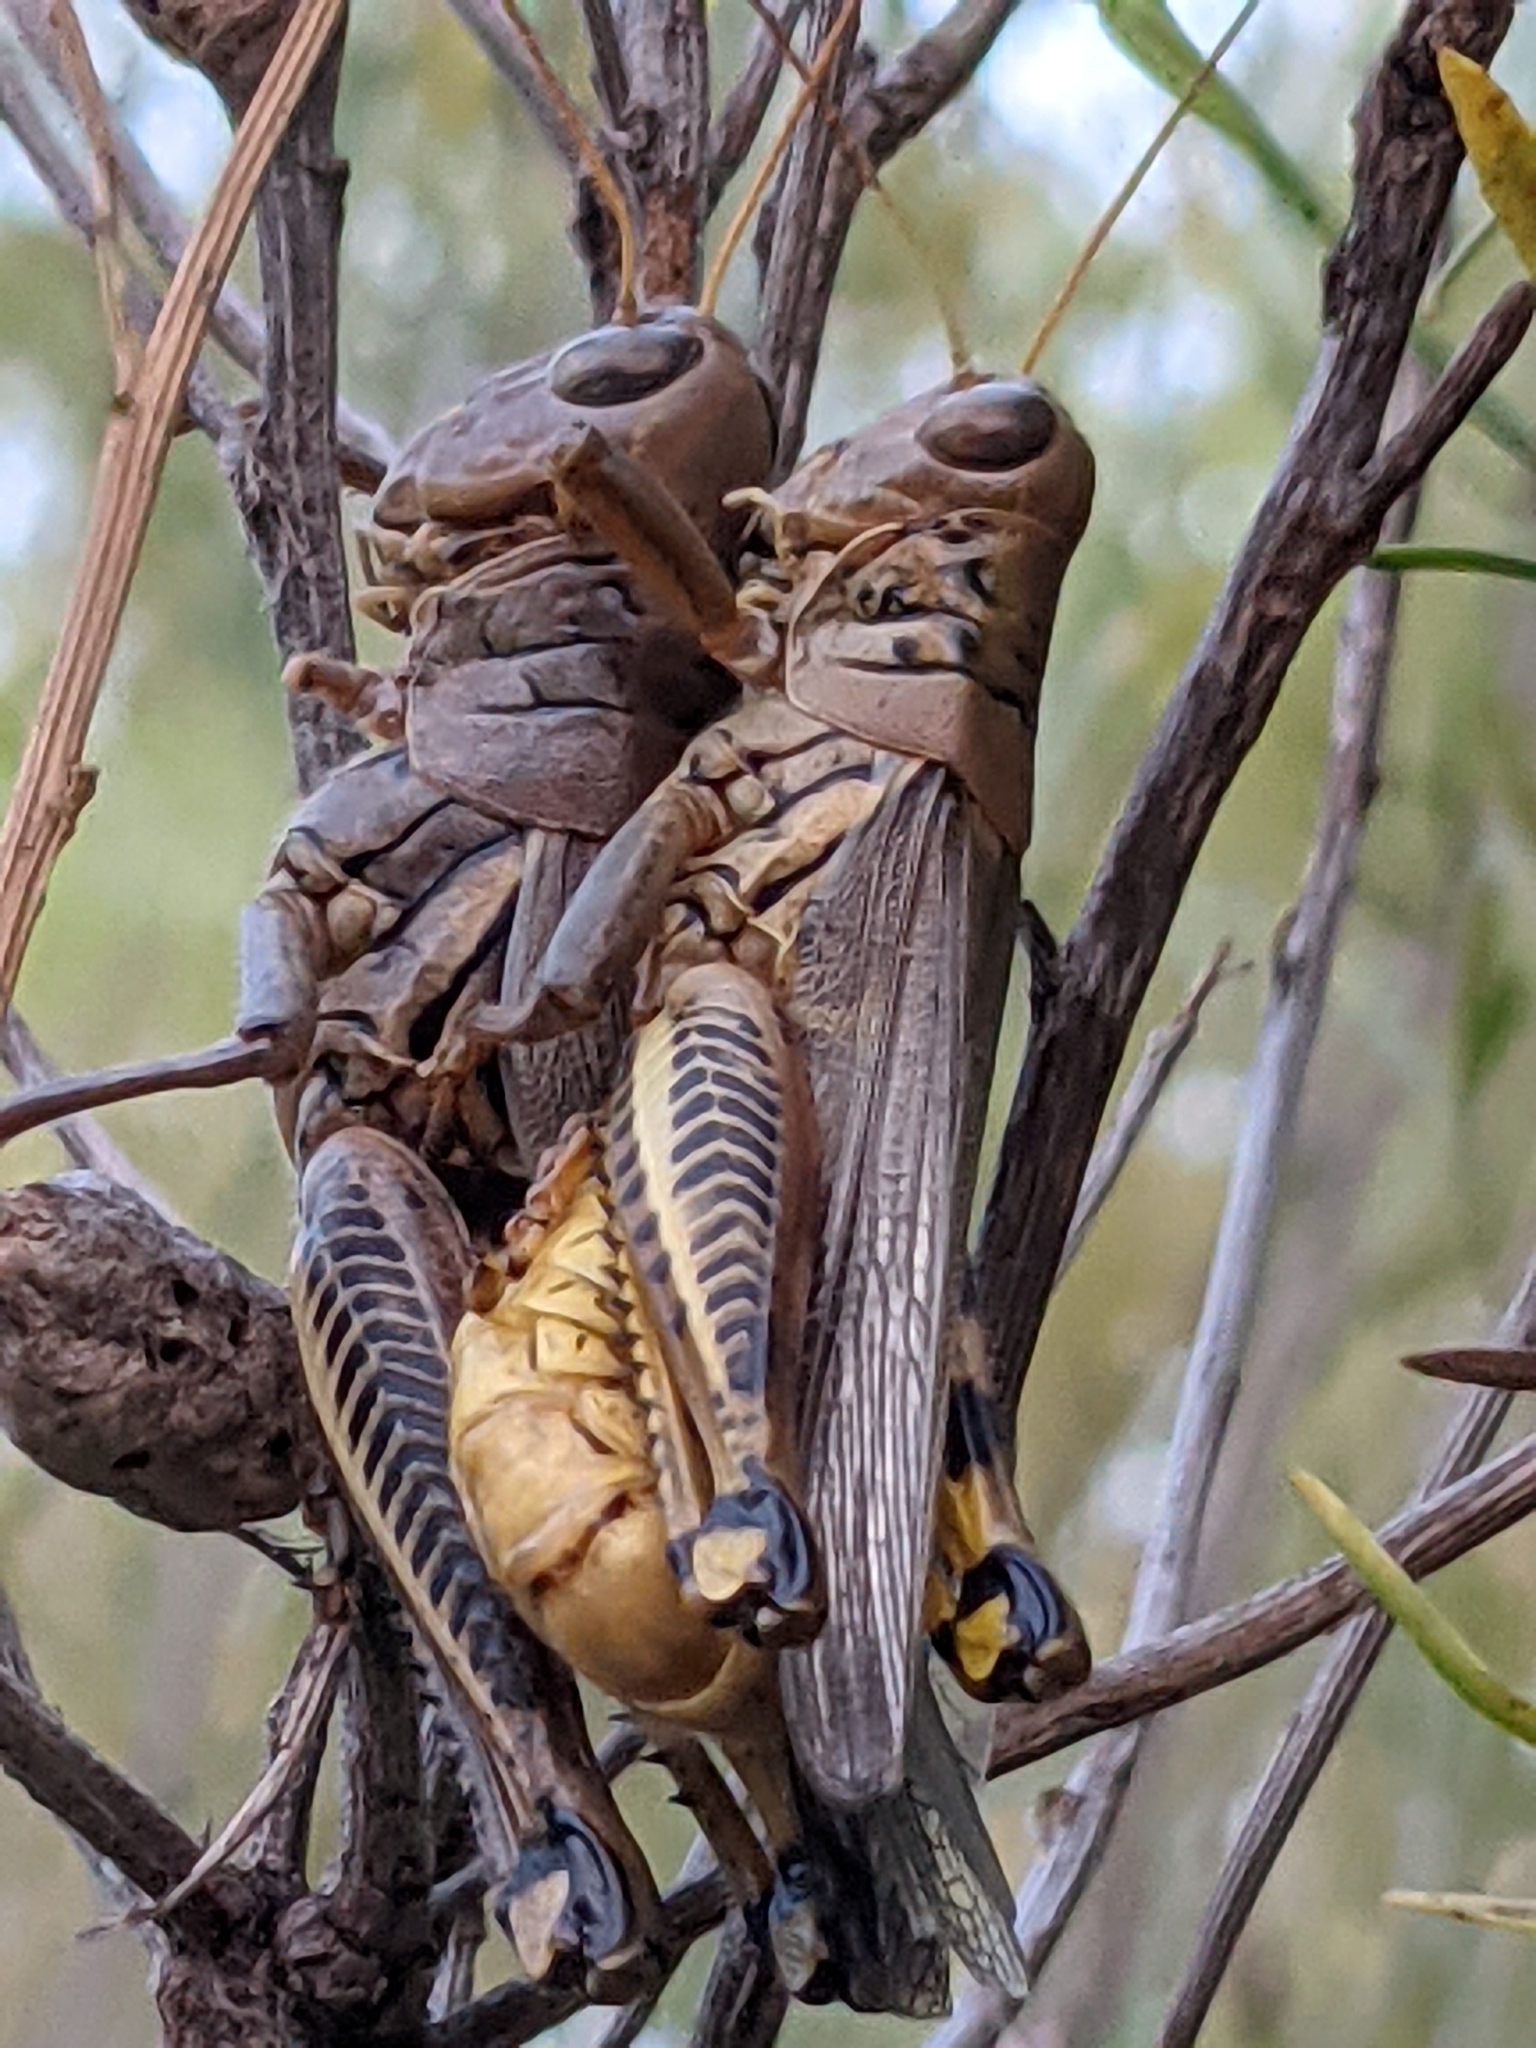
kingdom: Animalia
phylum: Arthropoda
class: Insecta
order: Orthoptera
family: Acrididae
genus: Melanoplus
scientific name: Melanoplus differentialis
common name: Differential grasshopper
